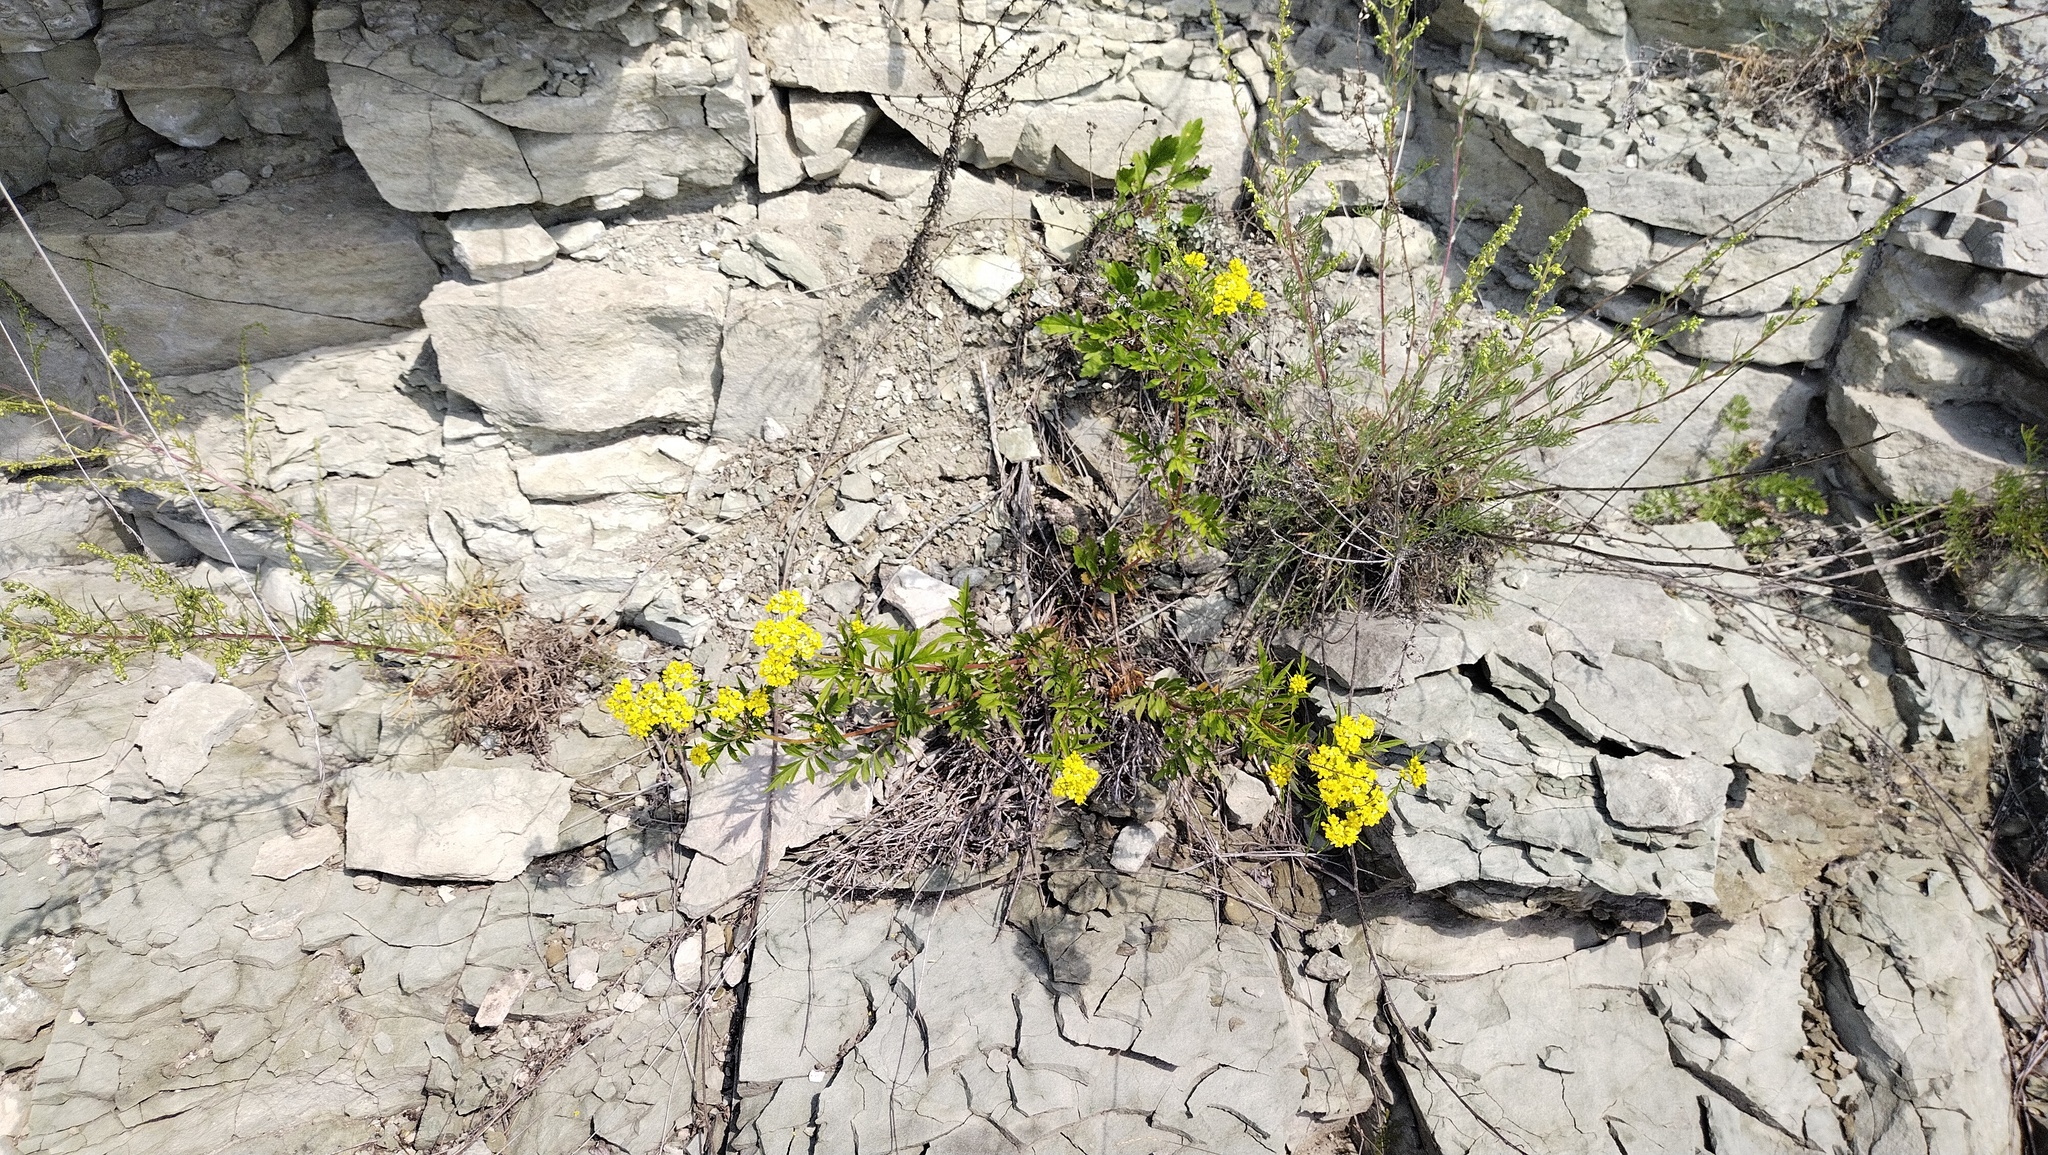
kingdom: Plantae
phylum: Tracheophyta
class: Magnoliopsida
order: Dipsacales
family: Caprifoliaceae
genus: Patrinia
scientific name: Patrinia rupestris
